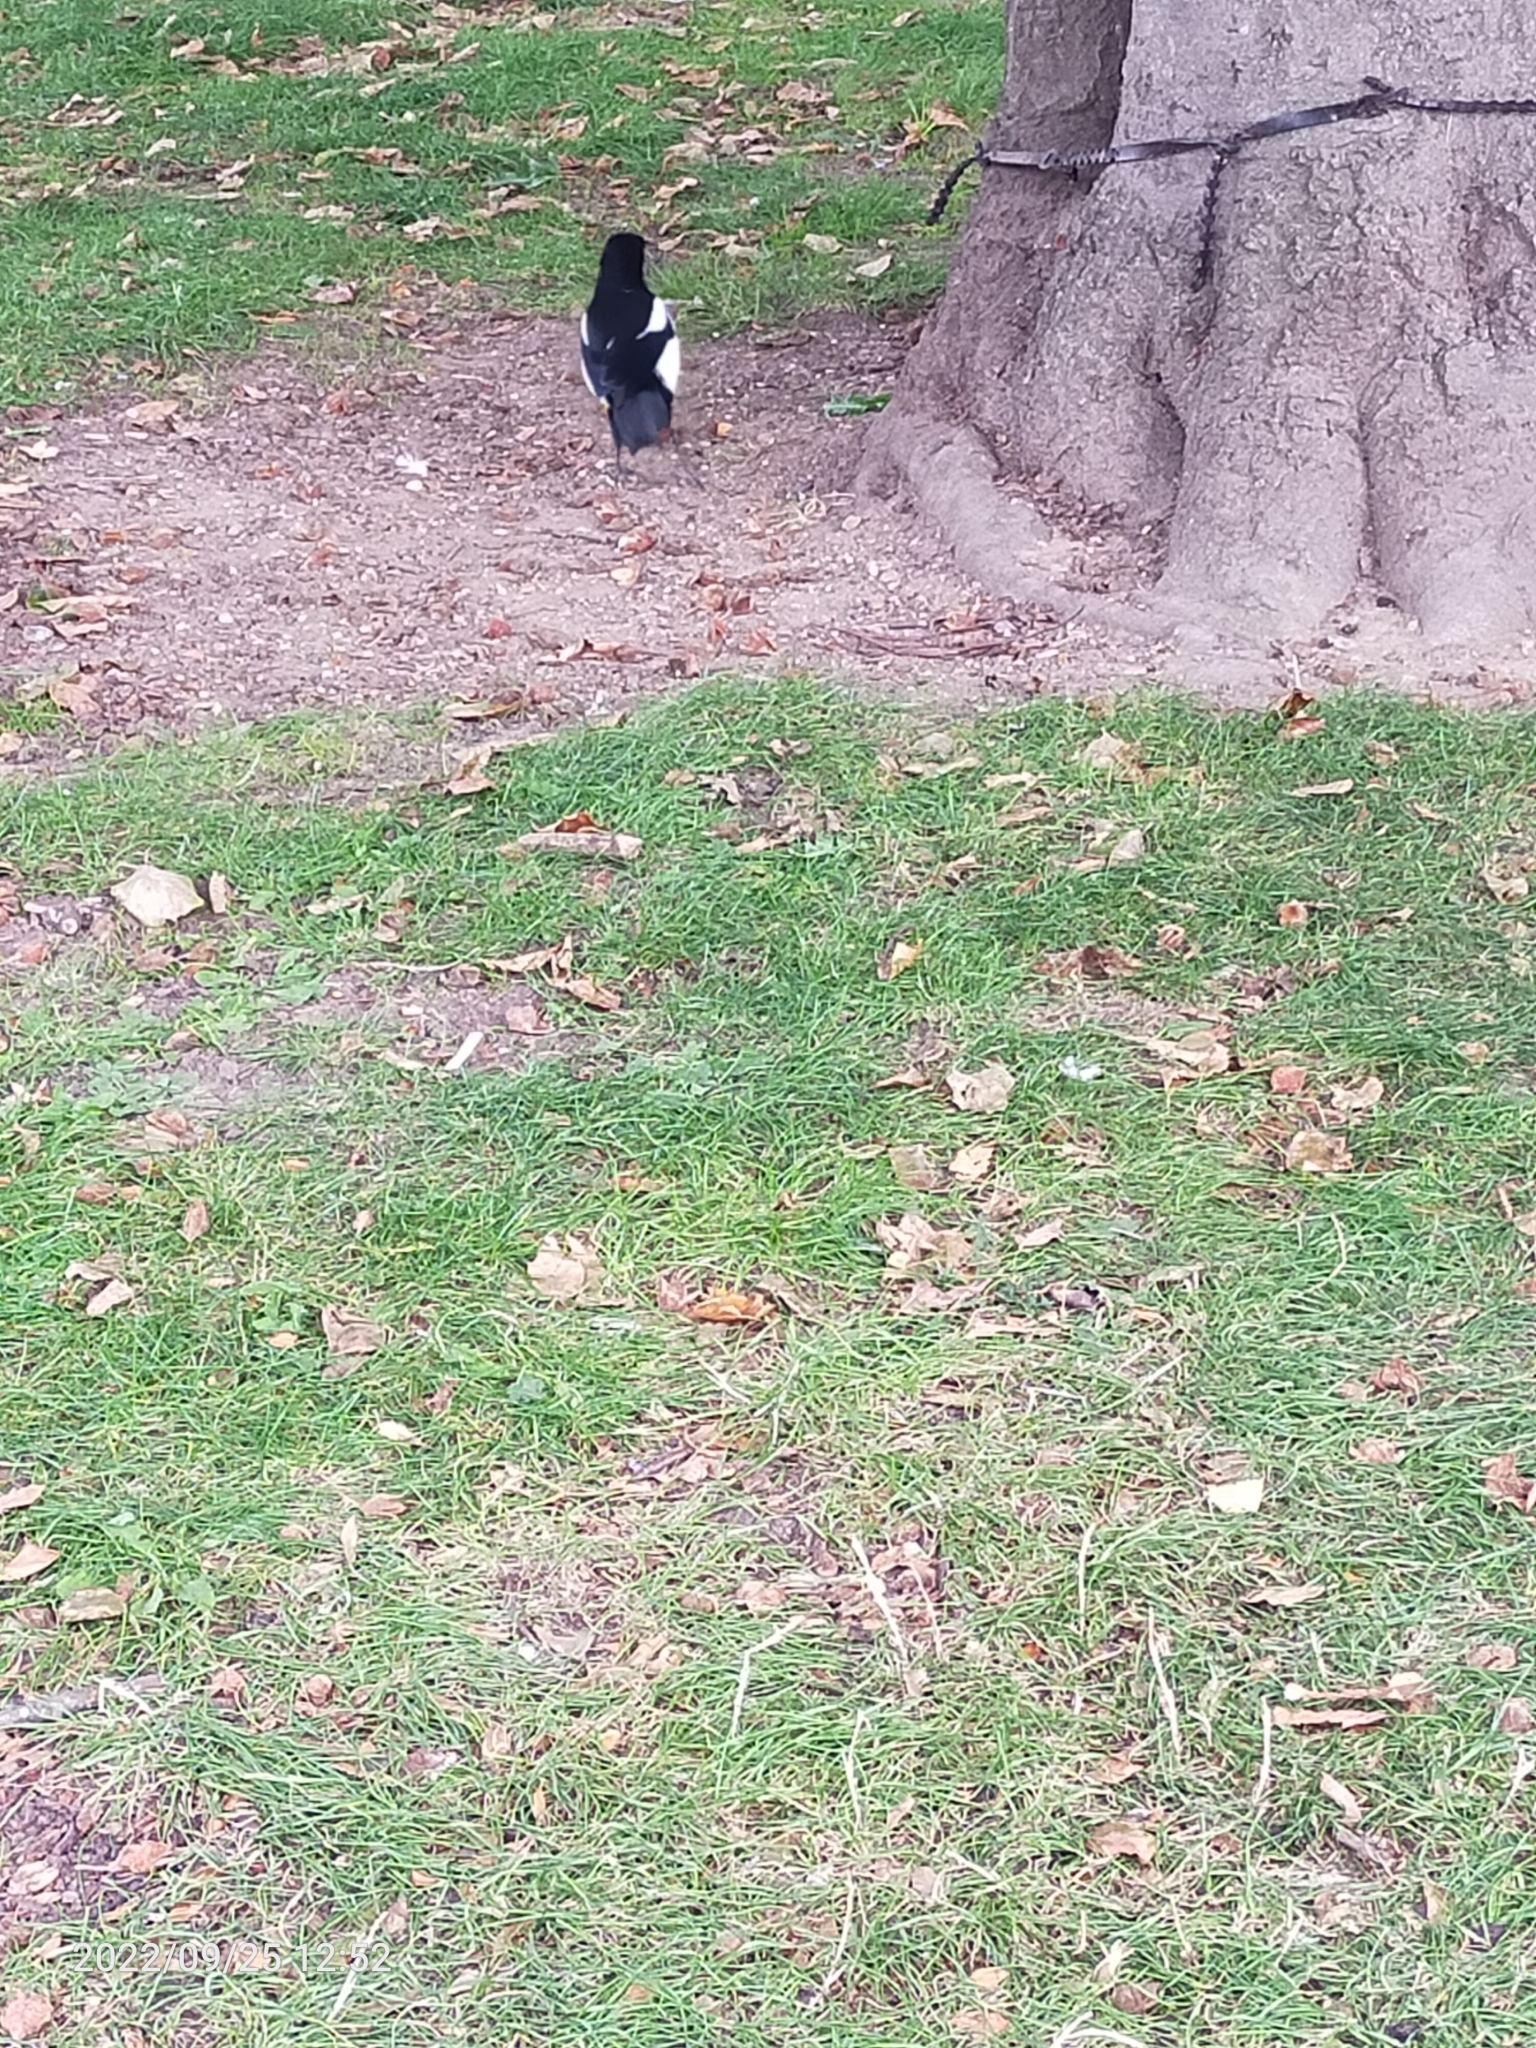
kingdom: Animalia
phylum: Chordata
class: Aves
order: Passeriformes
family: Corvidae
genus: Pica
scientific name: Pica pica
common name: Eurasian magpie
